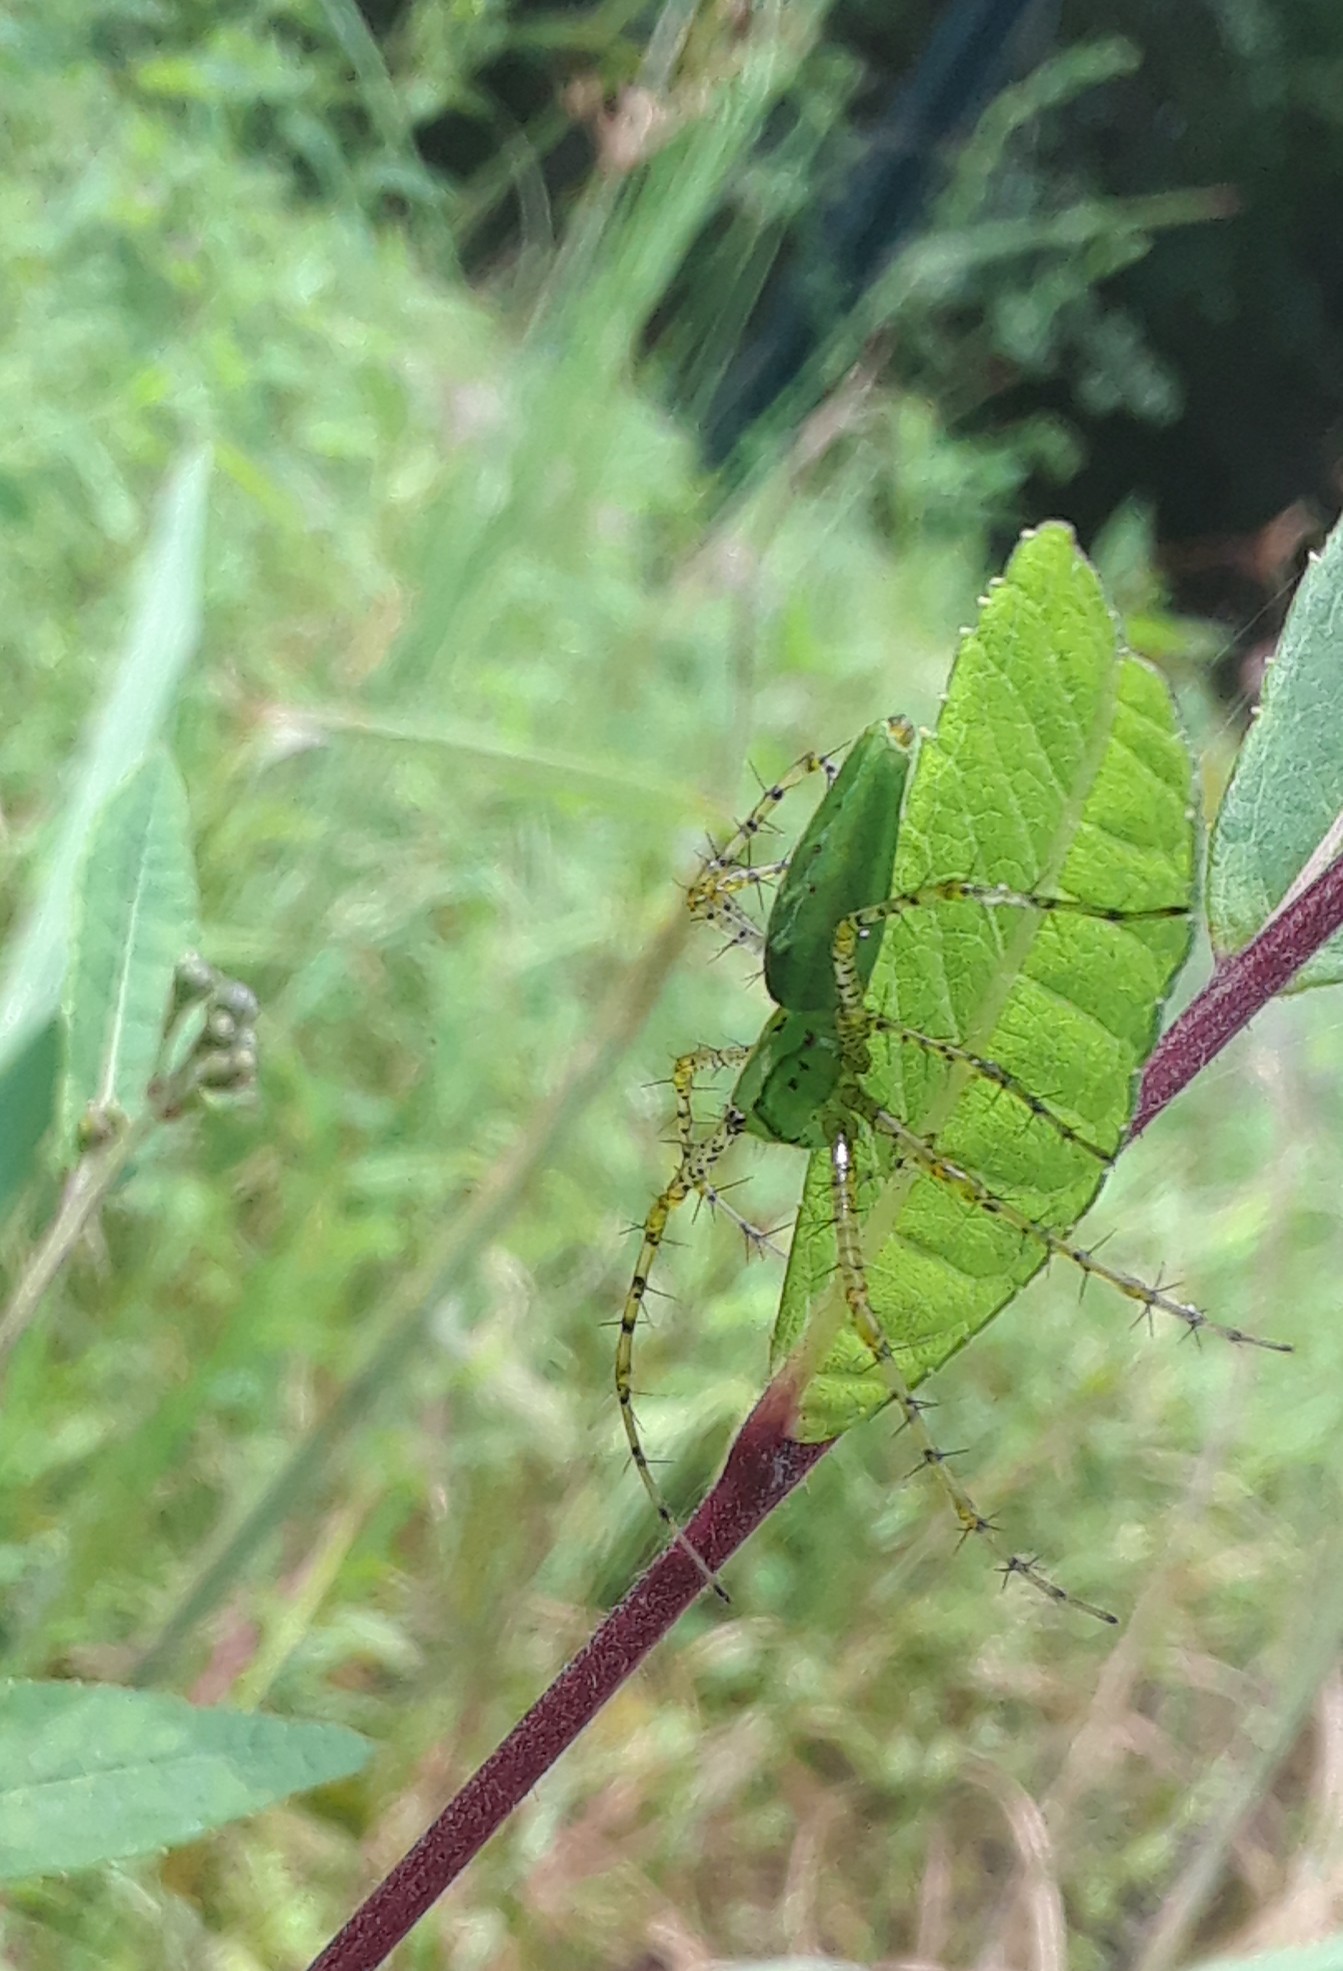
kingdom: Animalia
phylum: Arthropoda
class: Arachnida
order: Araneae
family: Oxyopidae
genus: Peucetia
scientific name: Peucetia viridans
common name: Lynx spiders
